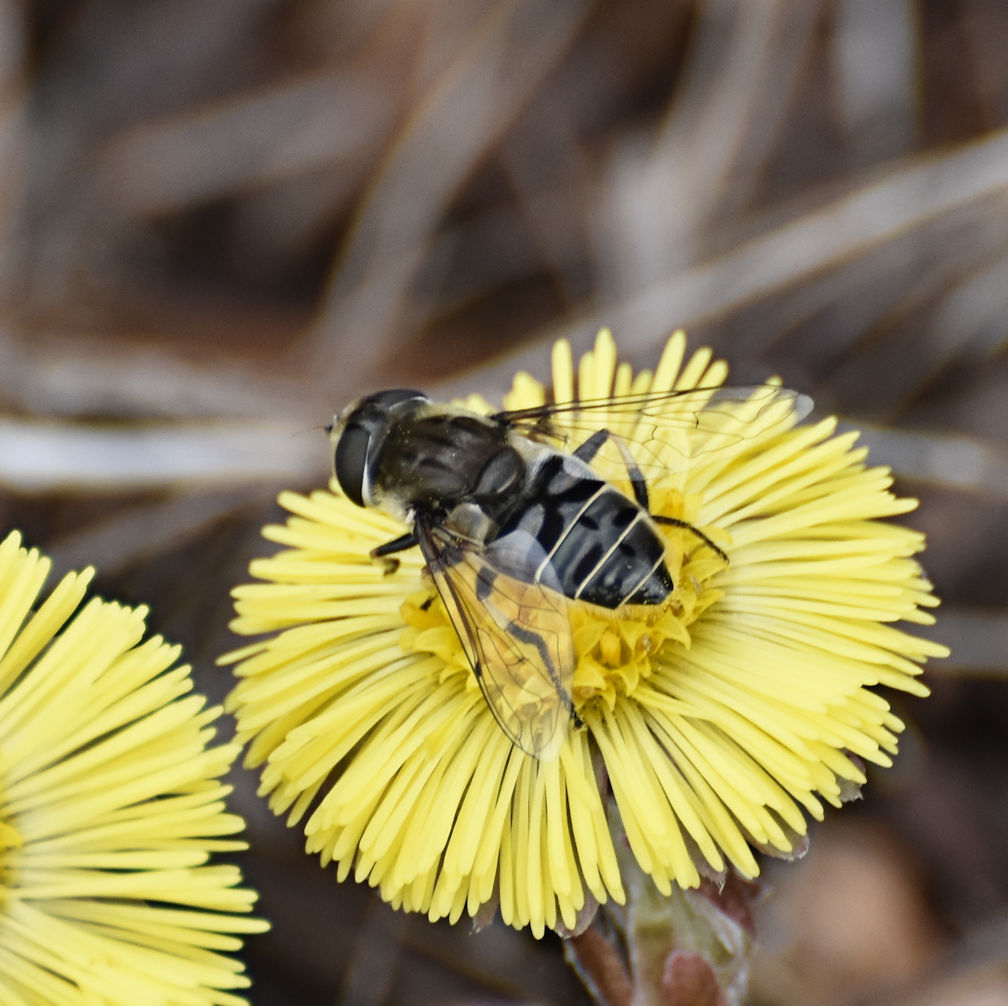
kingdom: Animalia
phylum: Arthropoda
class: Insecta
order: Diptera
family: Syrphidae
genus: Eristalis
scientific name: Eristalis dimidiata
